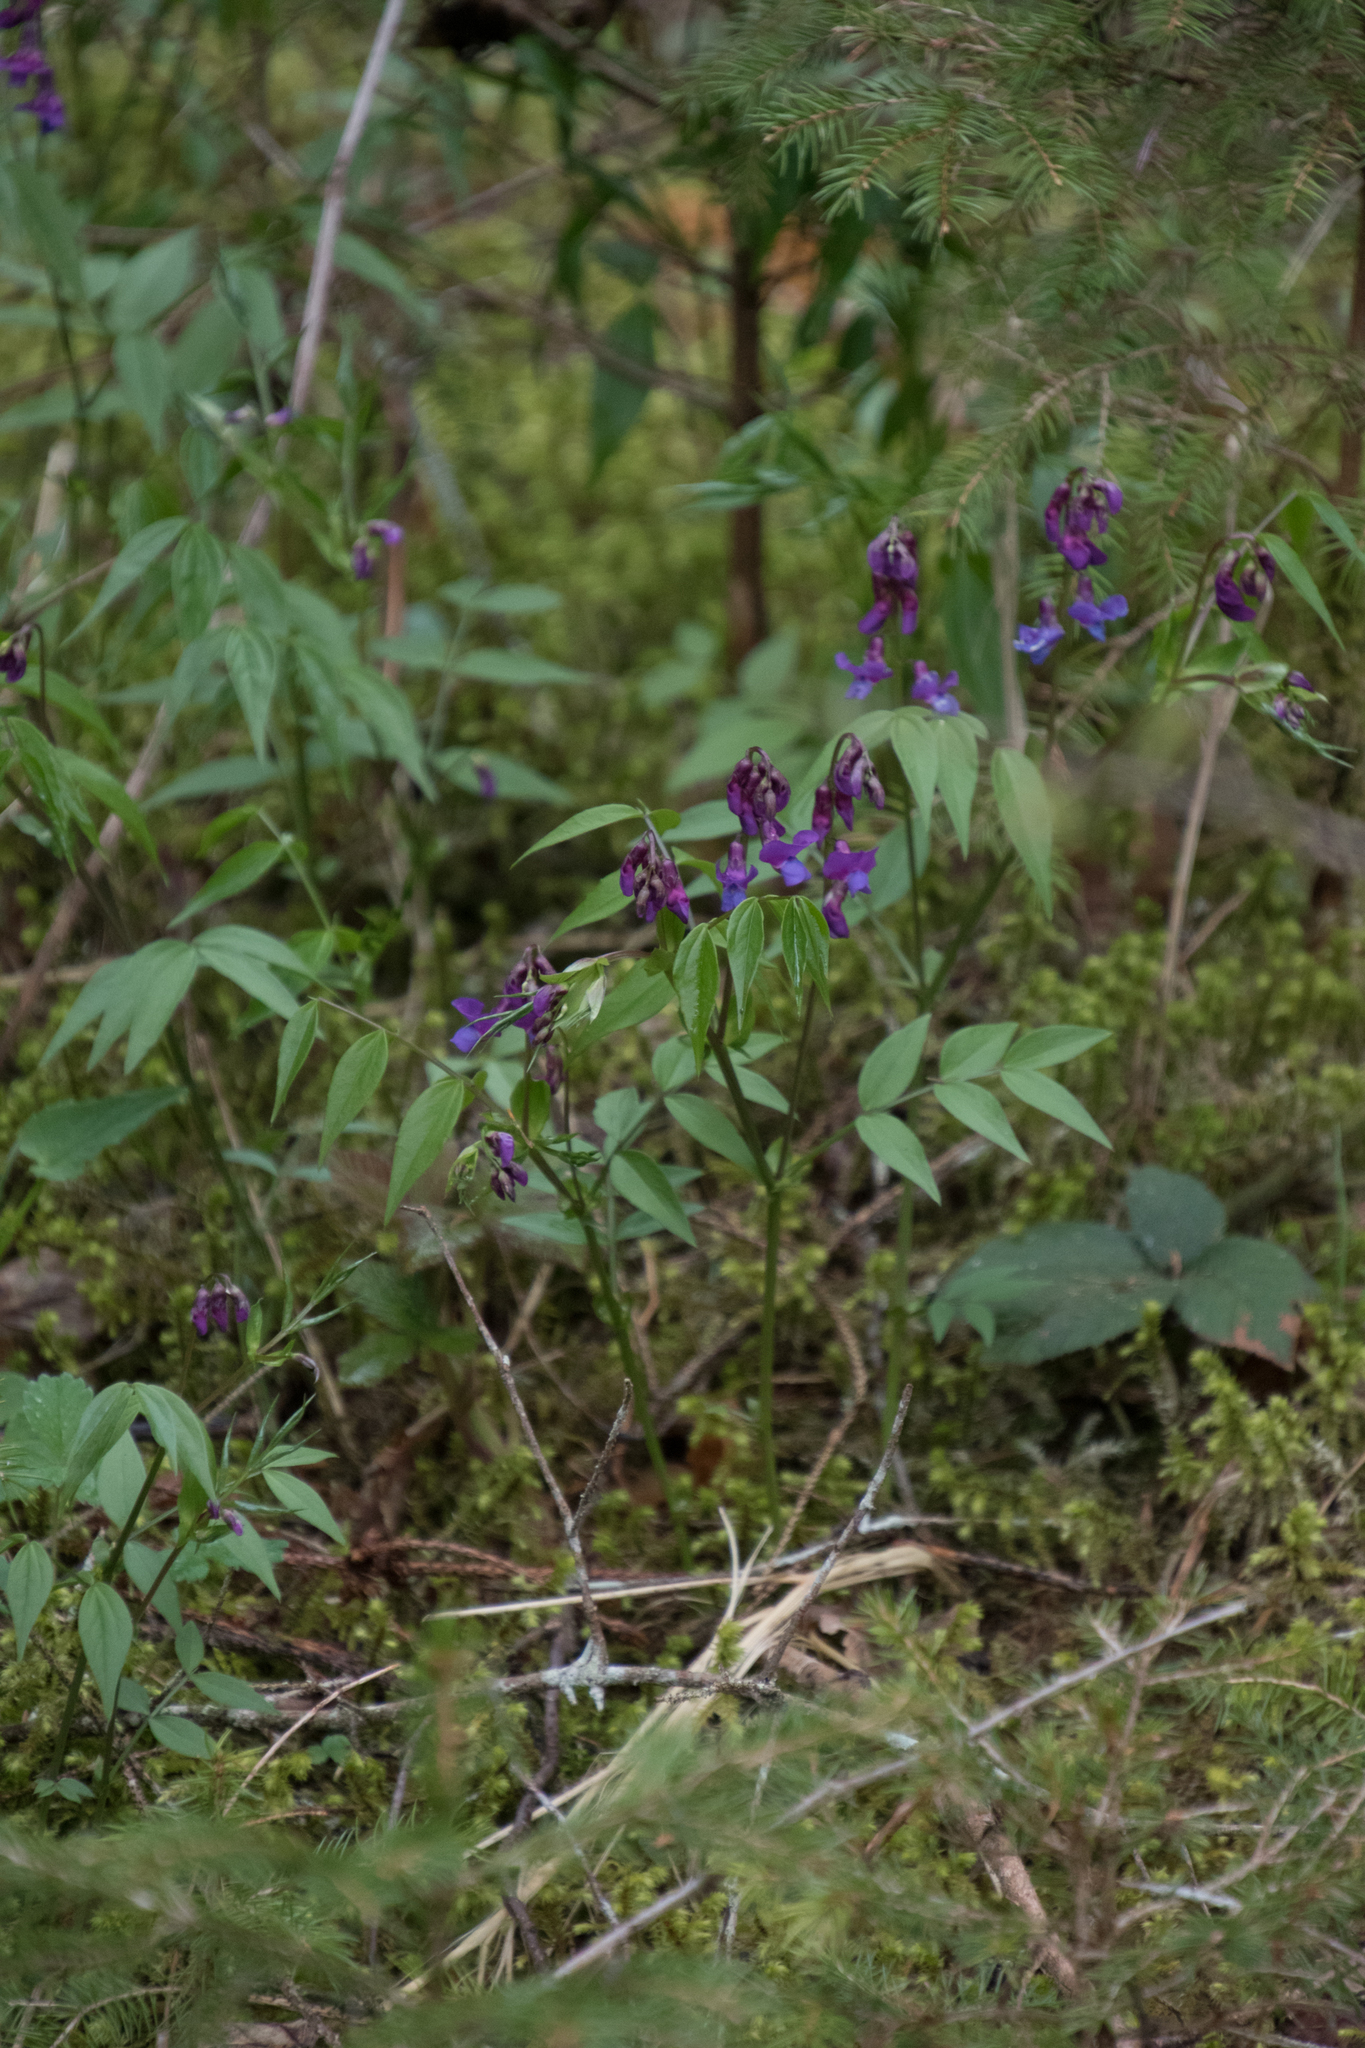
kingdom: Plantae
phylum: Tracheophyta
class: Magnoliopsida
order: Fabales
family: Fabaceae
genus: Lathyrus
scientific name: Lathyrus vernus
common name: Spring pea
